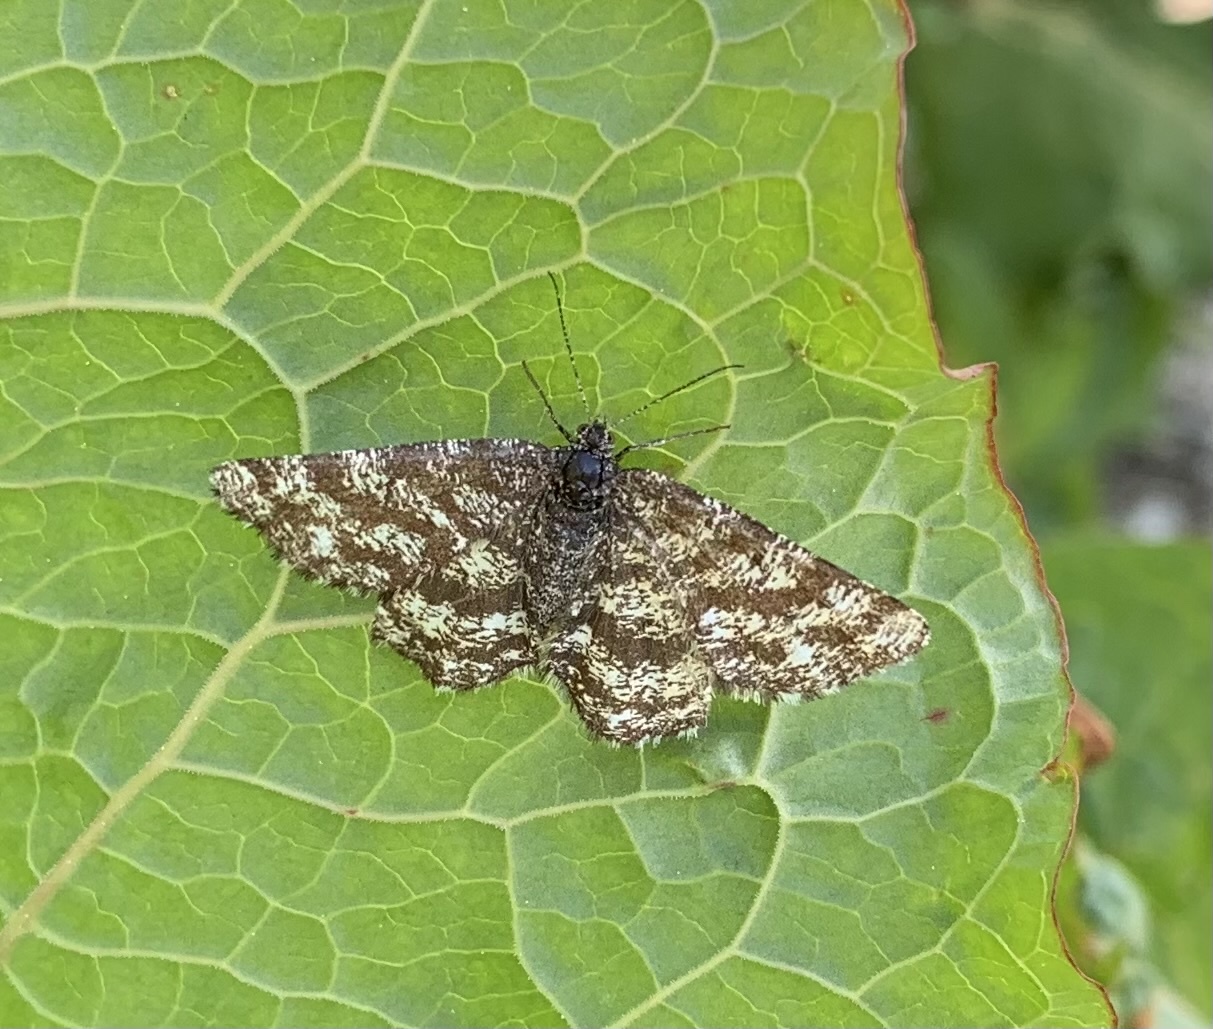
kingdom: Animalia
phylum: Arthropoda
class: Insecta
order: Lepidoptera
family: Geometridae
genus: Ematurga
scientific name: Ematurga atomaria
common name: Common heath
